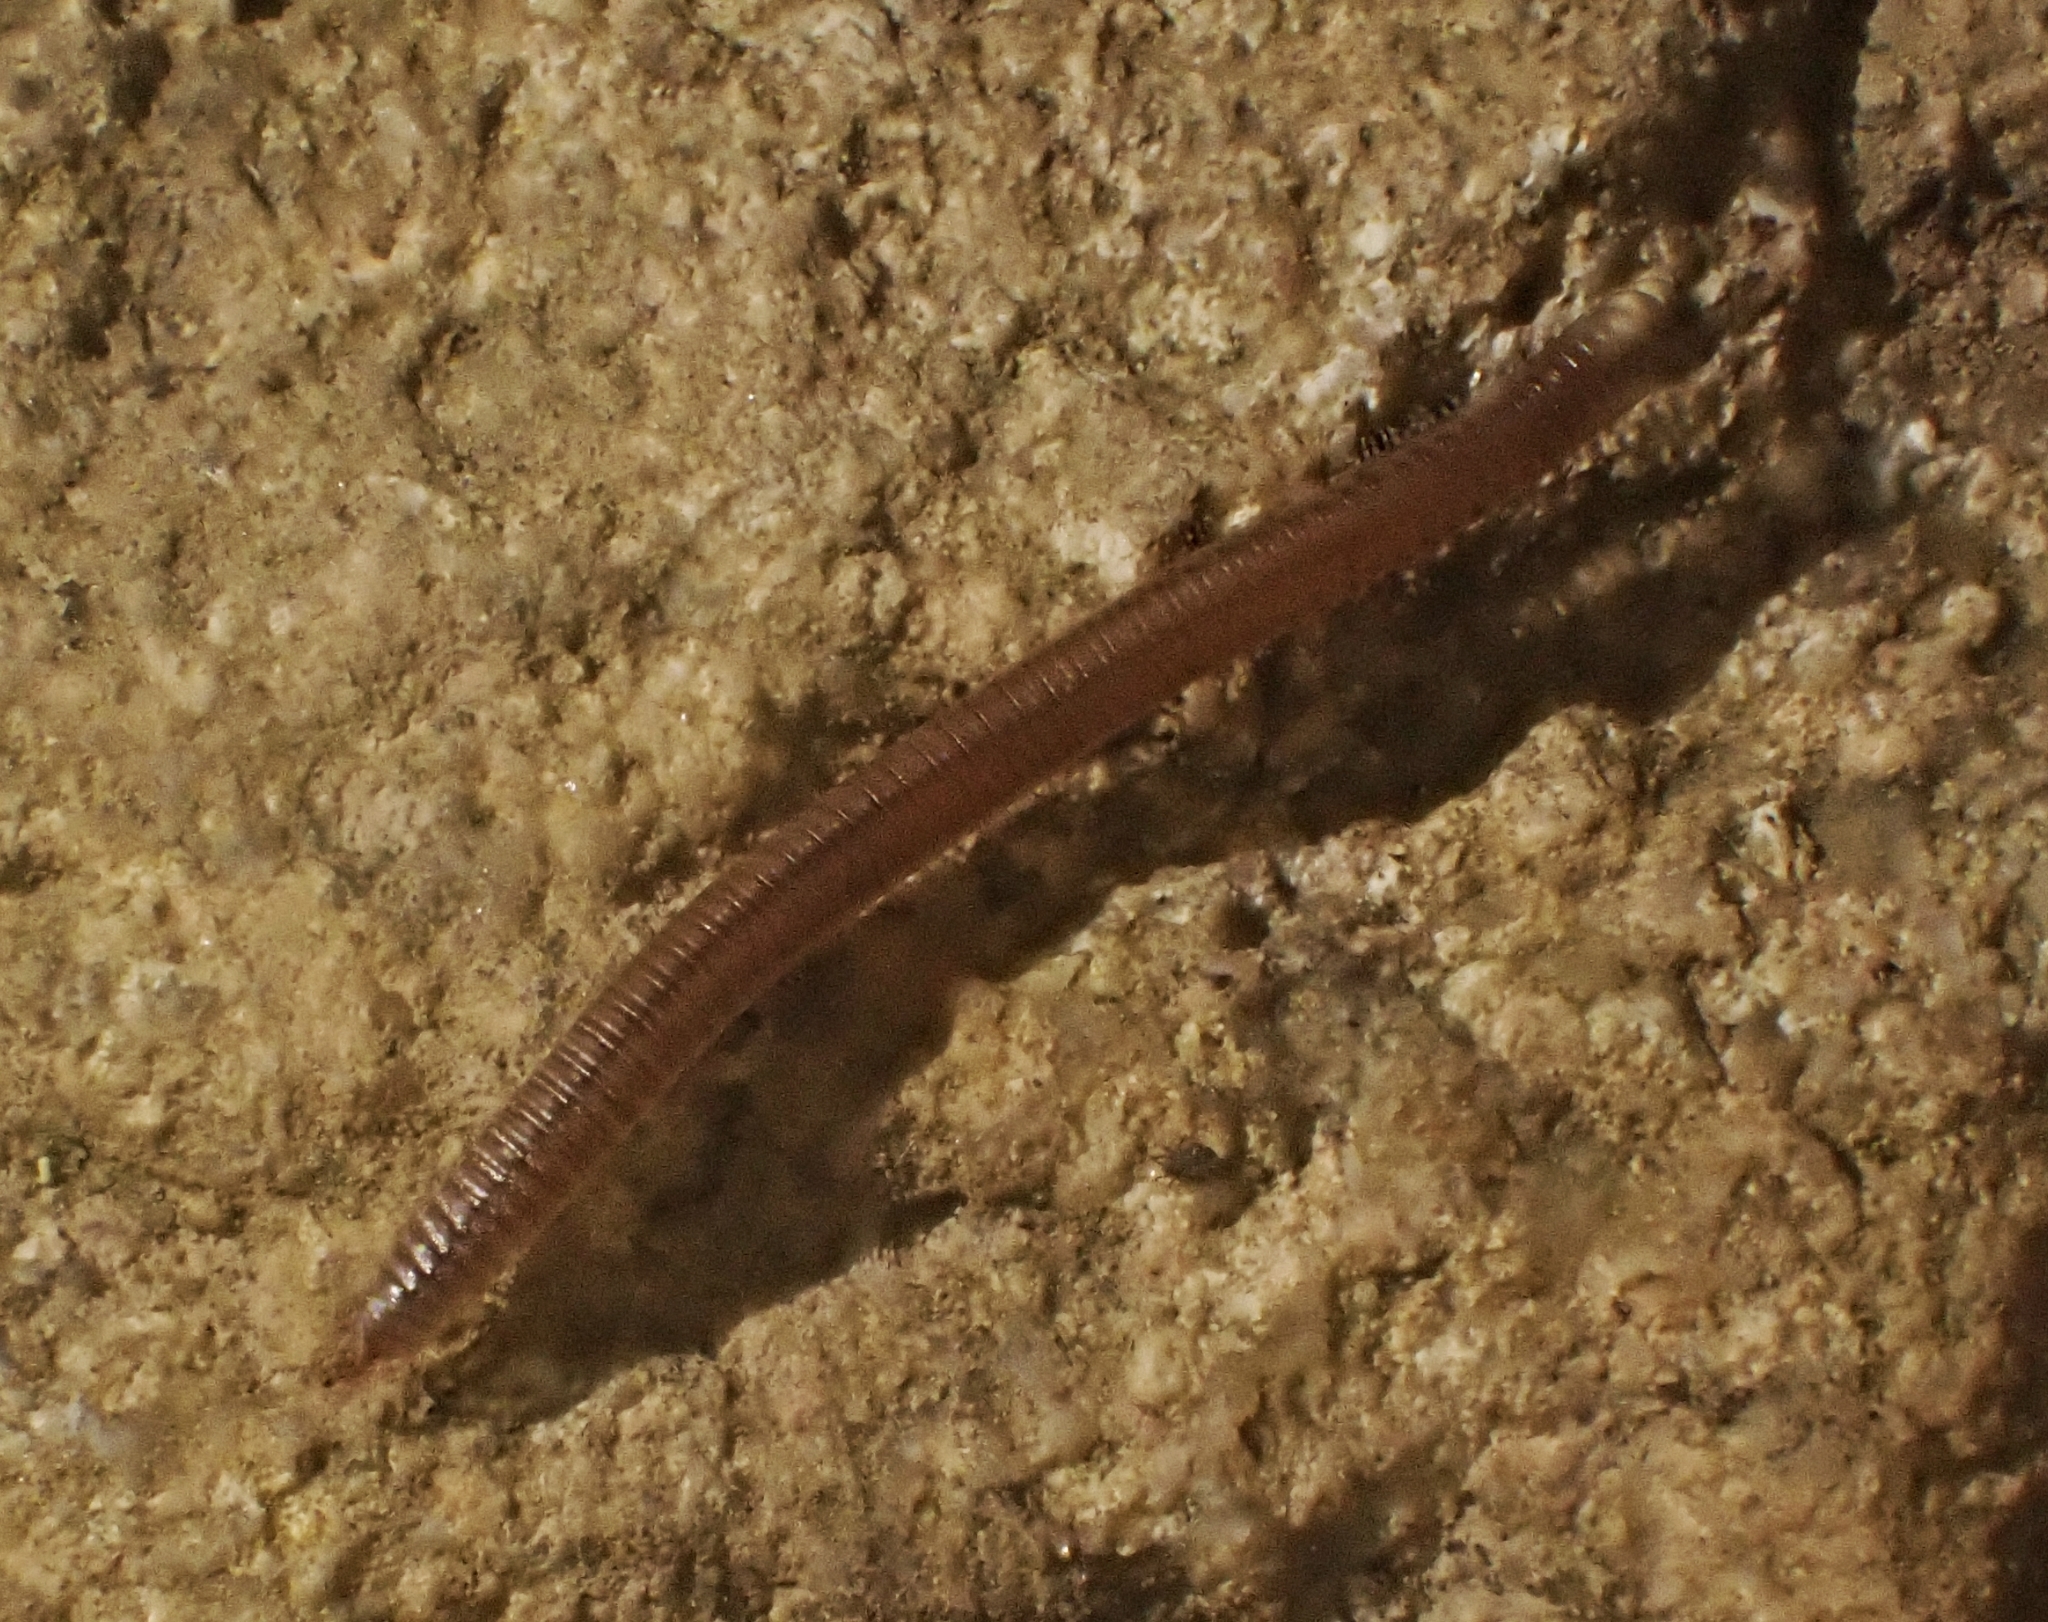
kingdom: Animalia
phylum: Arthropoda
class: Diplopoda
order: Julida
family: Julidae
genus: Cylindroiulus
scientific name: Cylindroiulus punctatus
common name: Blunt-tailed millipede
